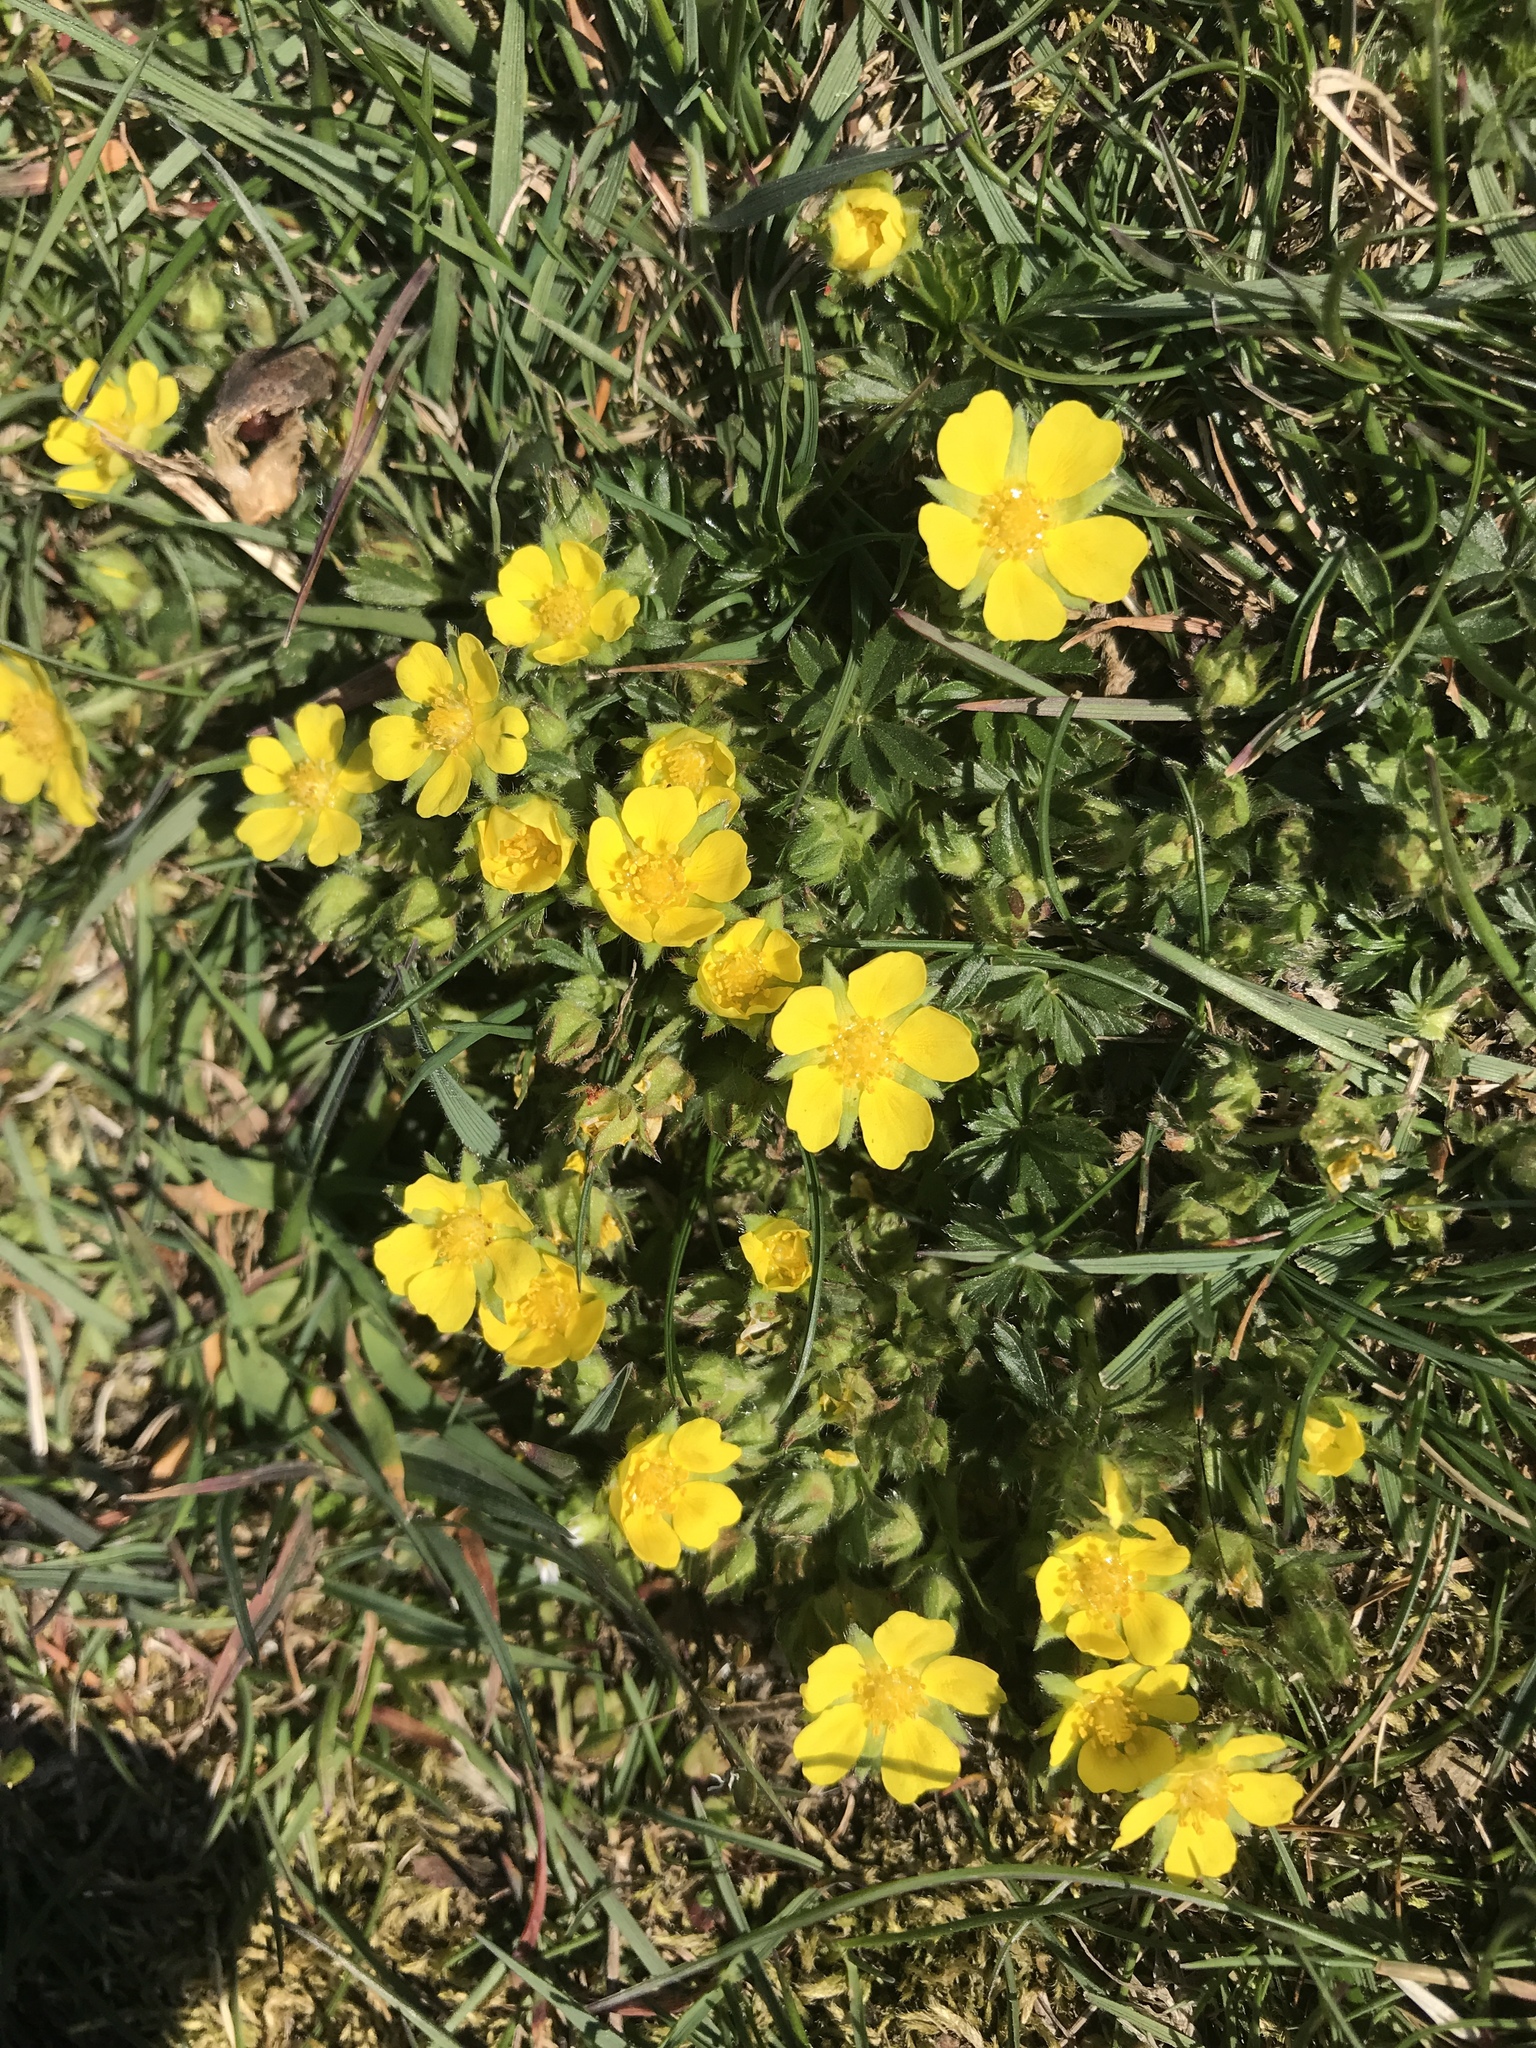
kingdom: Plantae
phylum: Tracheophyta
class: Magnoliopsida
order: Rosales
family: Rosaceae
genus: Potentilla
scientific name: Potentilla verna
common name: Spring cinquefoil
